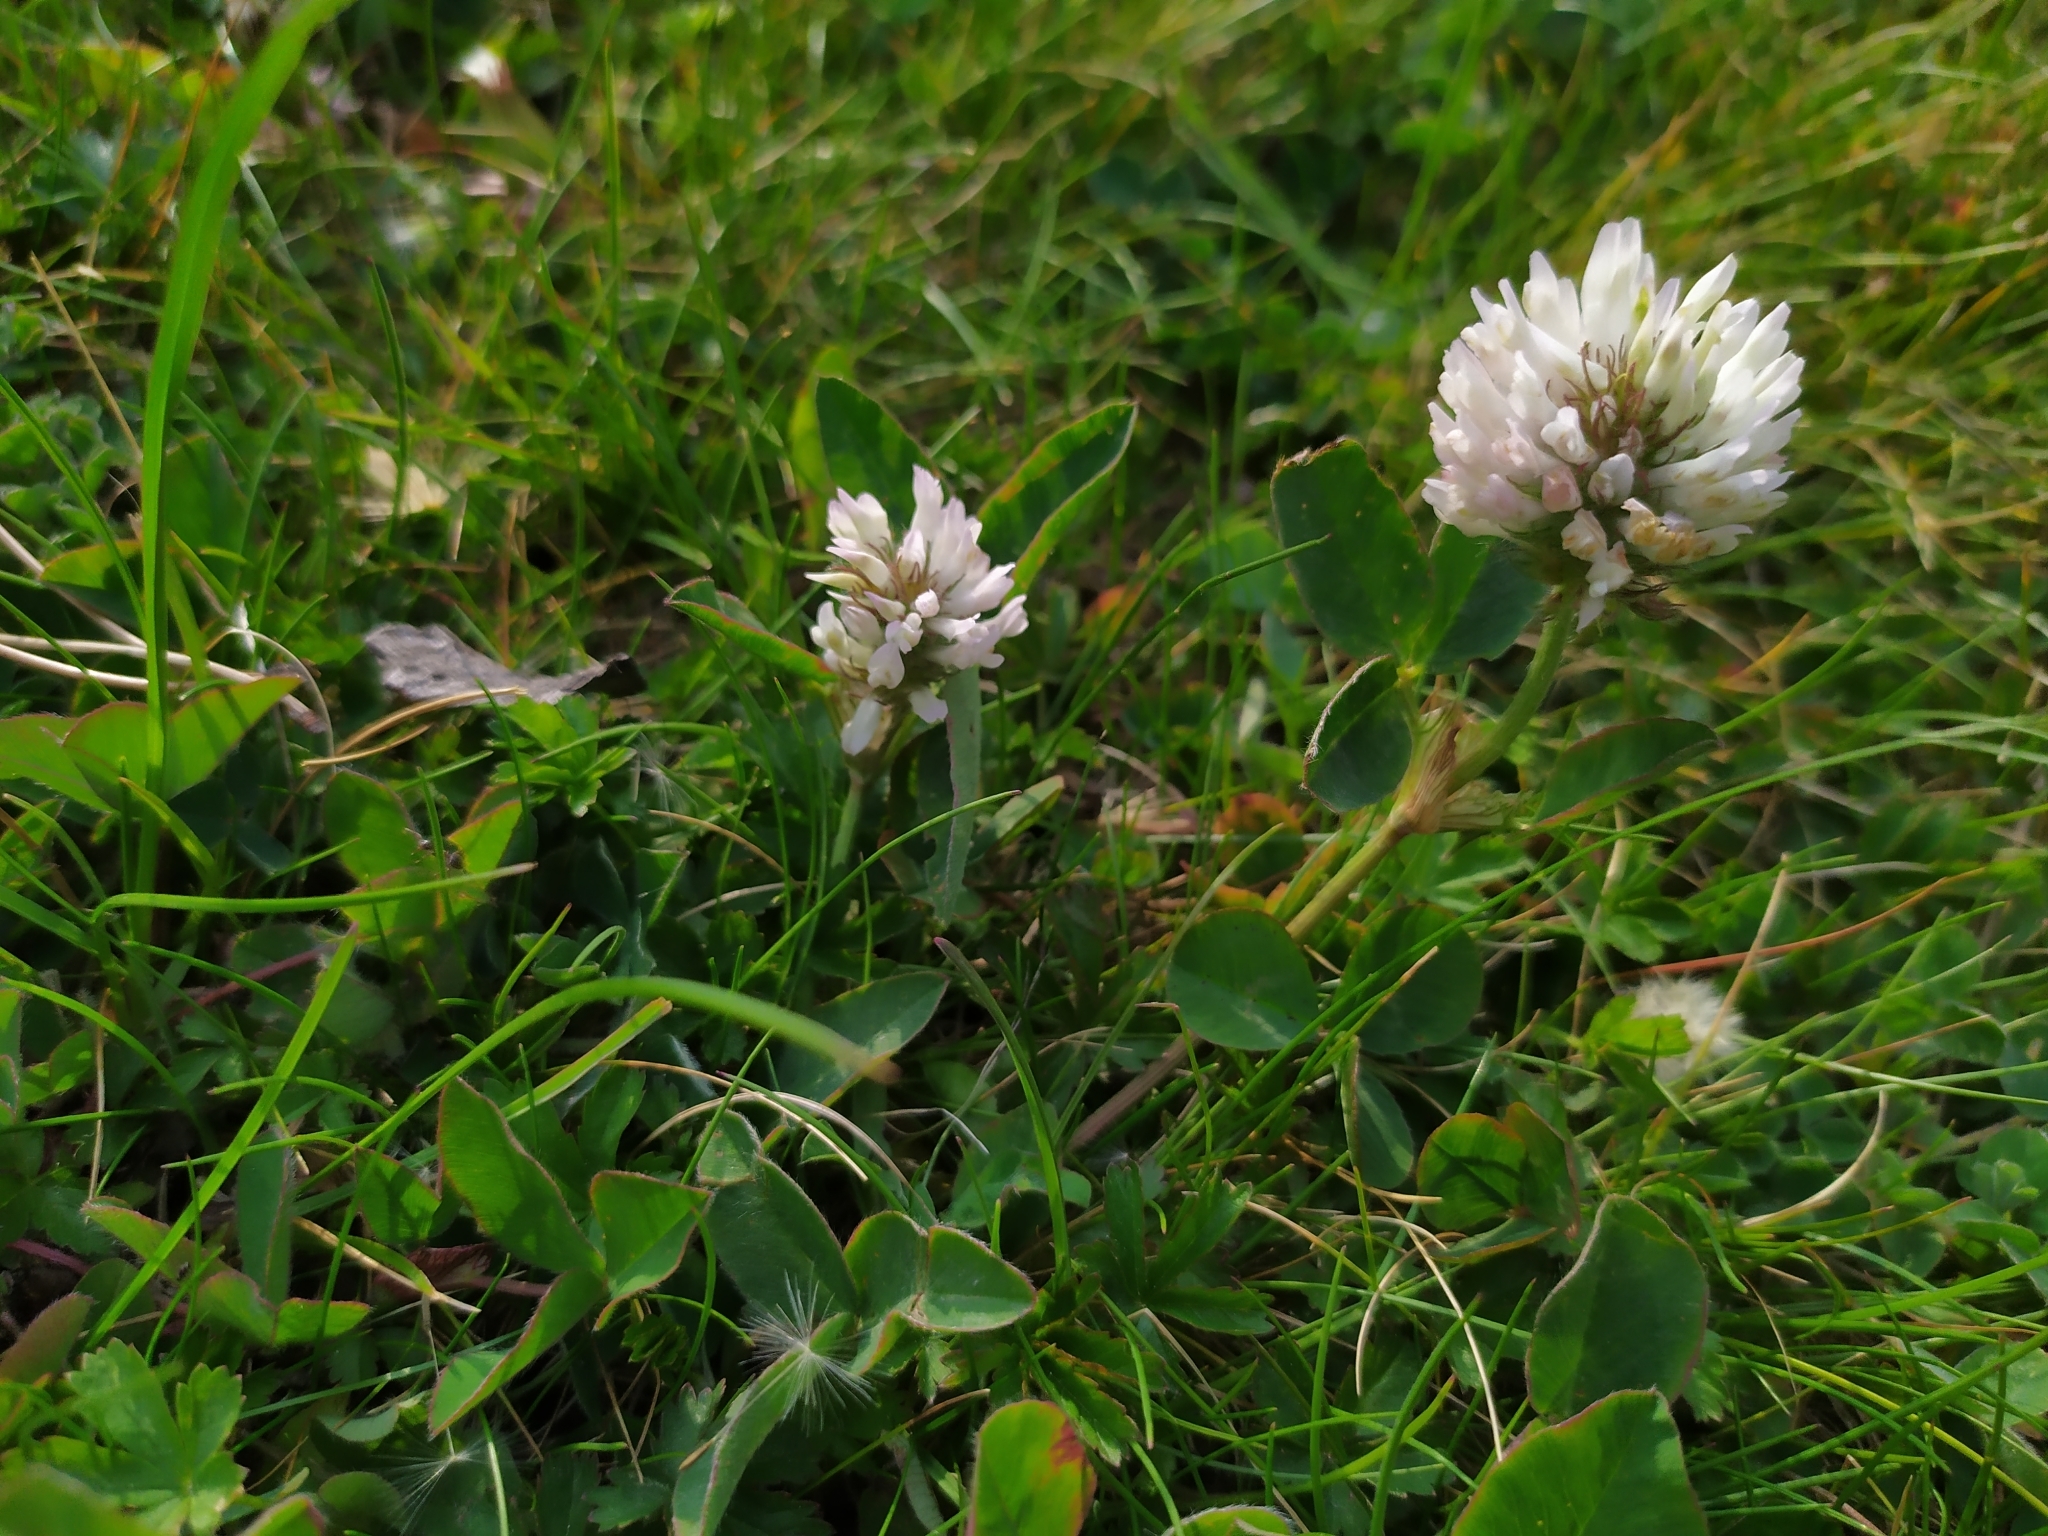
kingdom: Plantae
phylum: Tracheophyta
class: Magnoliopsida
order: Fabales
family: Fabaceae
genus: Trifolium
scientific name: Trifolium repens
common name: White clover
